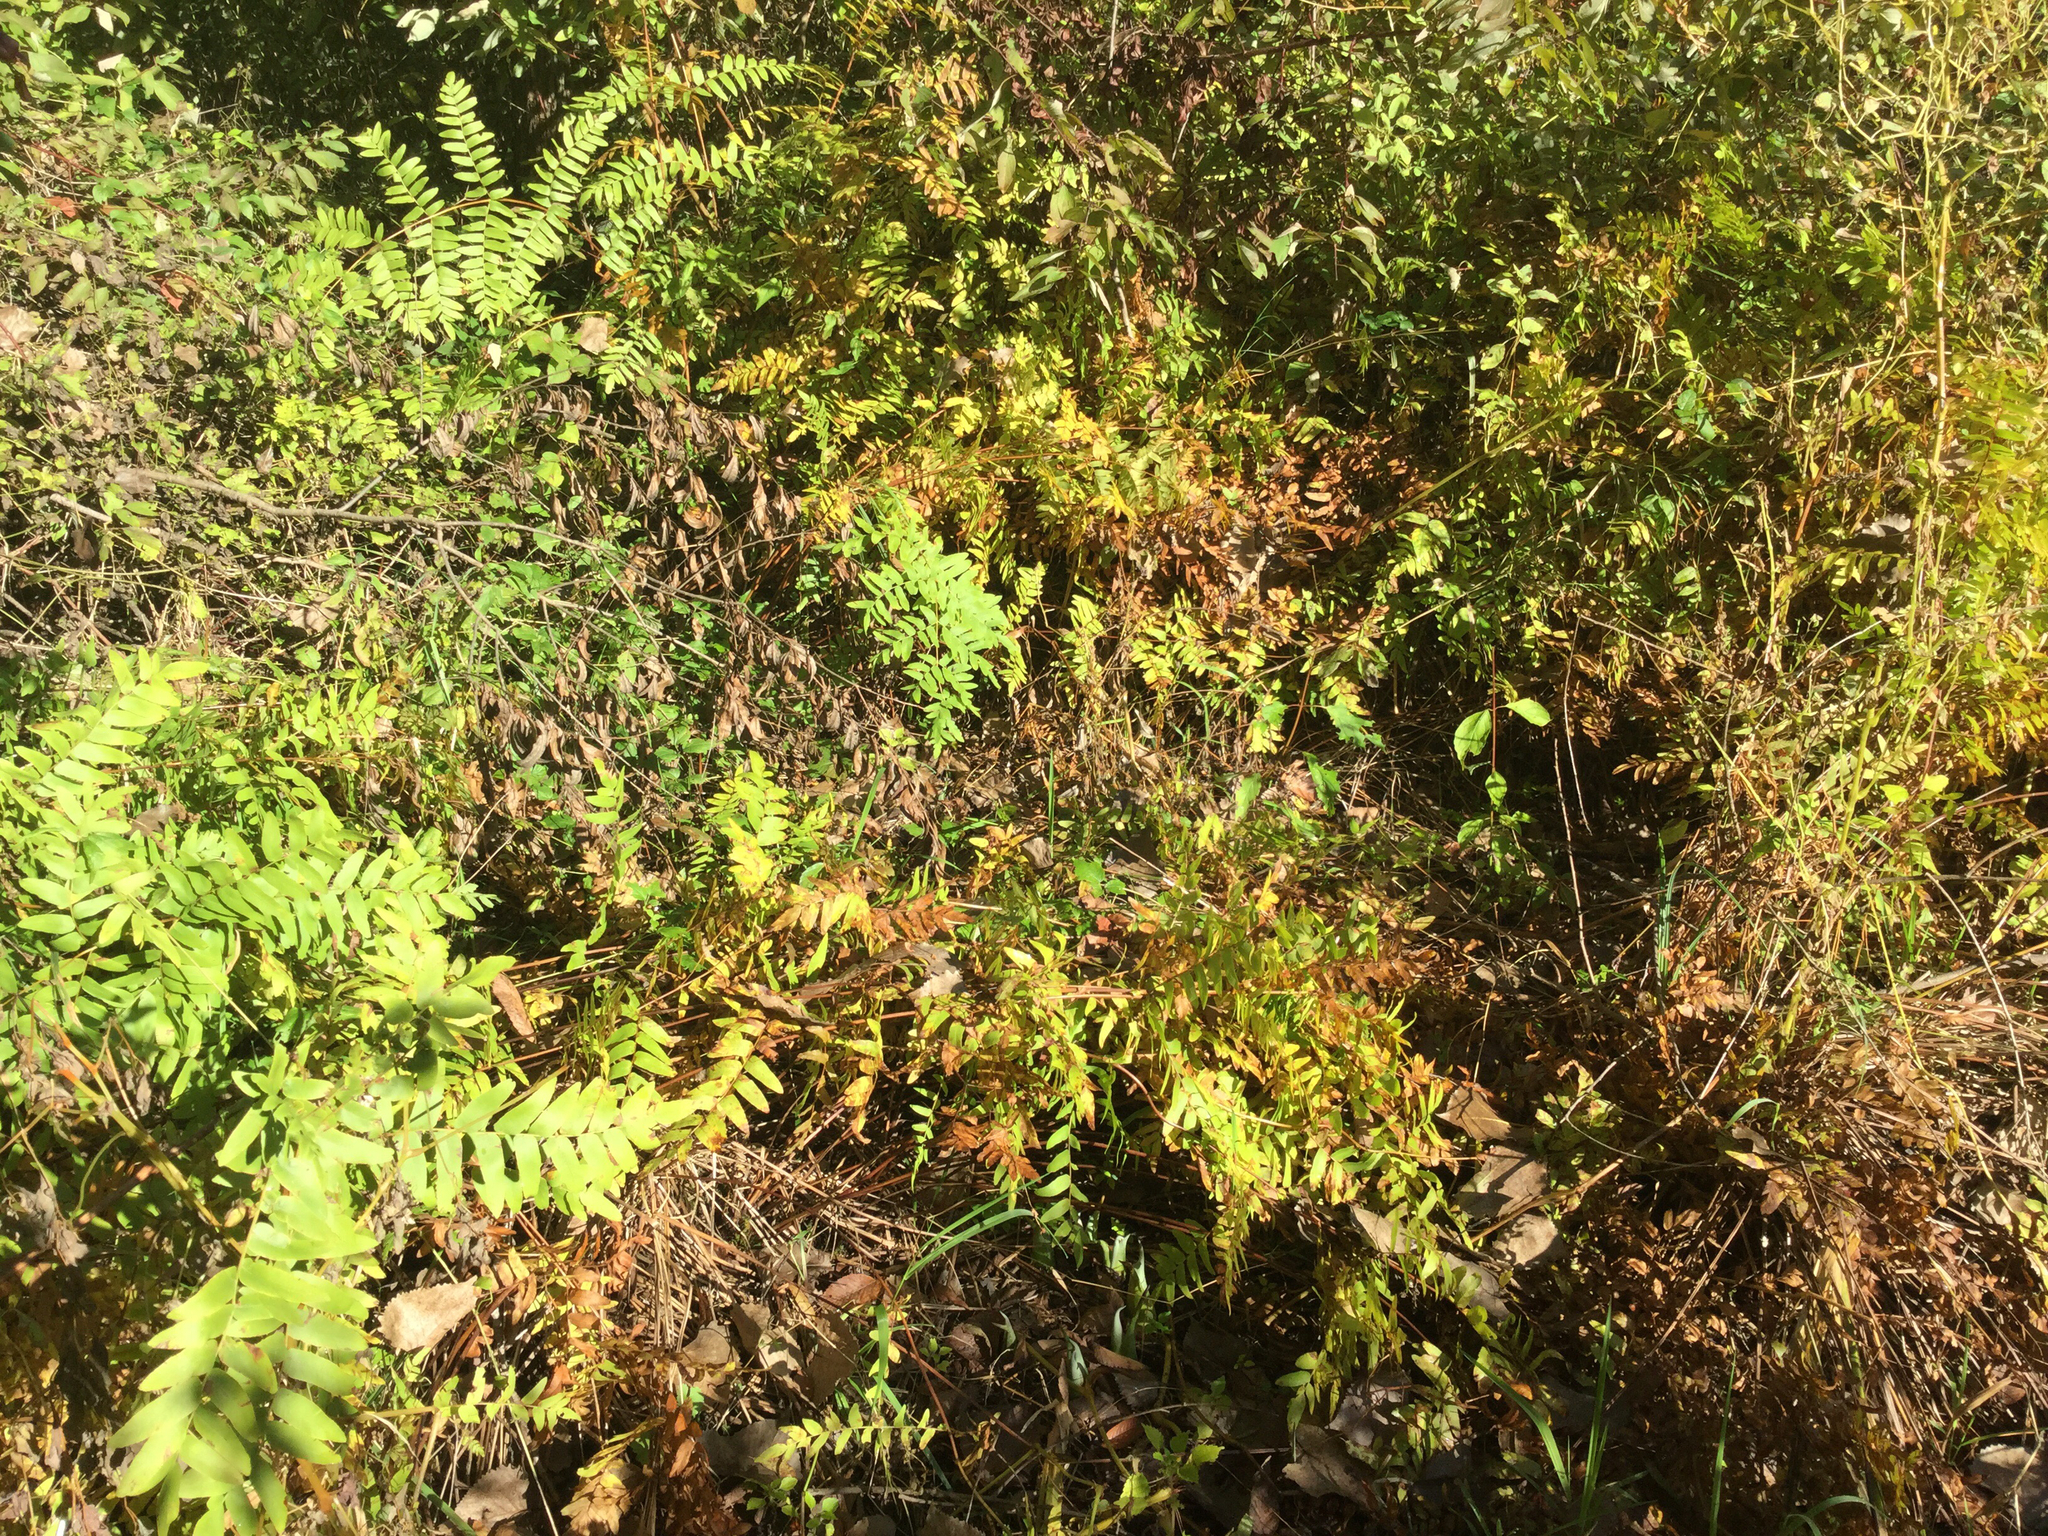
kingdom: Plantae
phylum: Tracheophyta
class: Polypodiopsida
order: Osmundales
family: Osmundaceae
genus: Osmunda
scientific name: Osmunda spectabilis
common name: American royal fern
